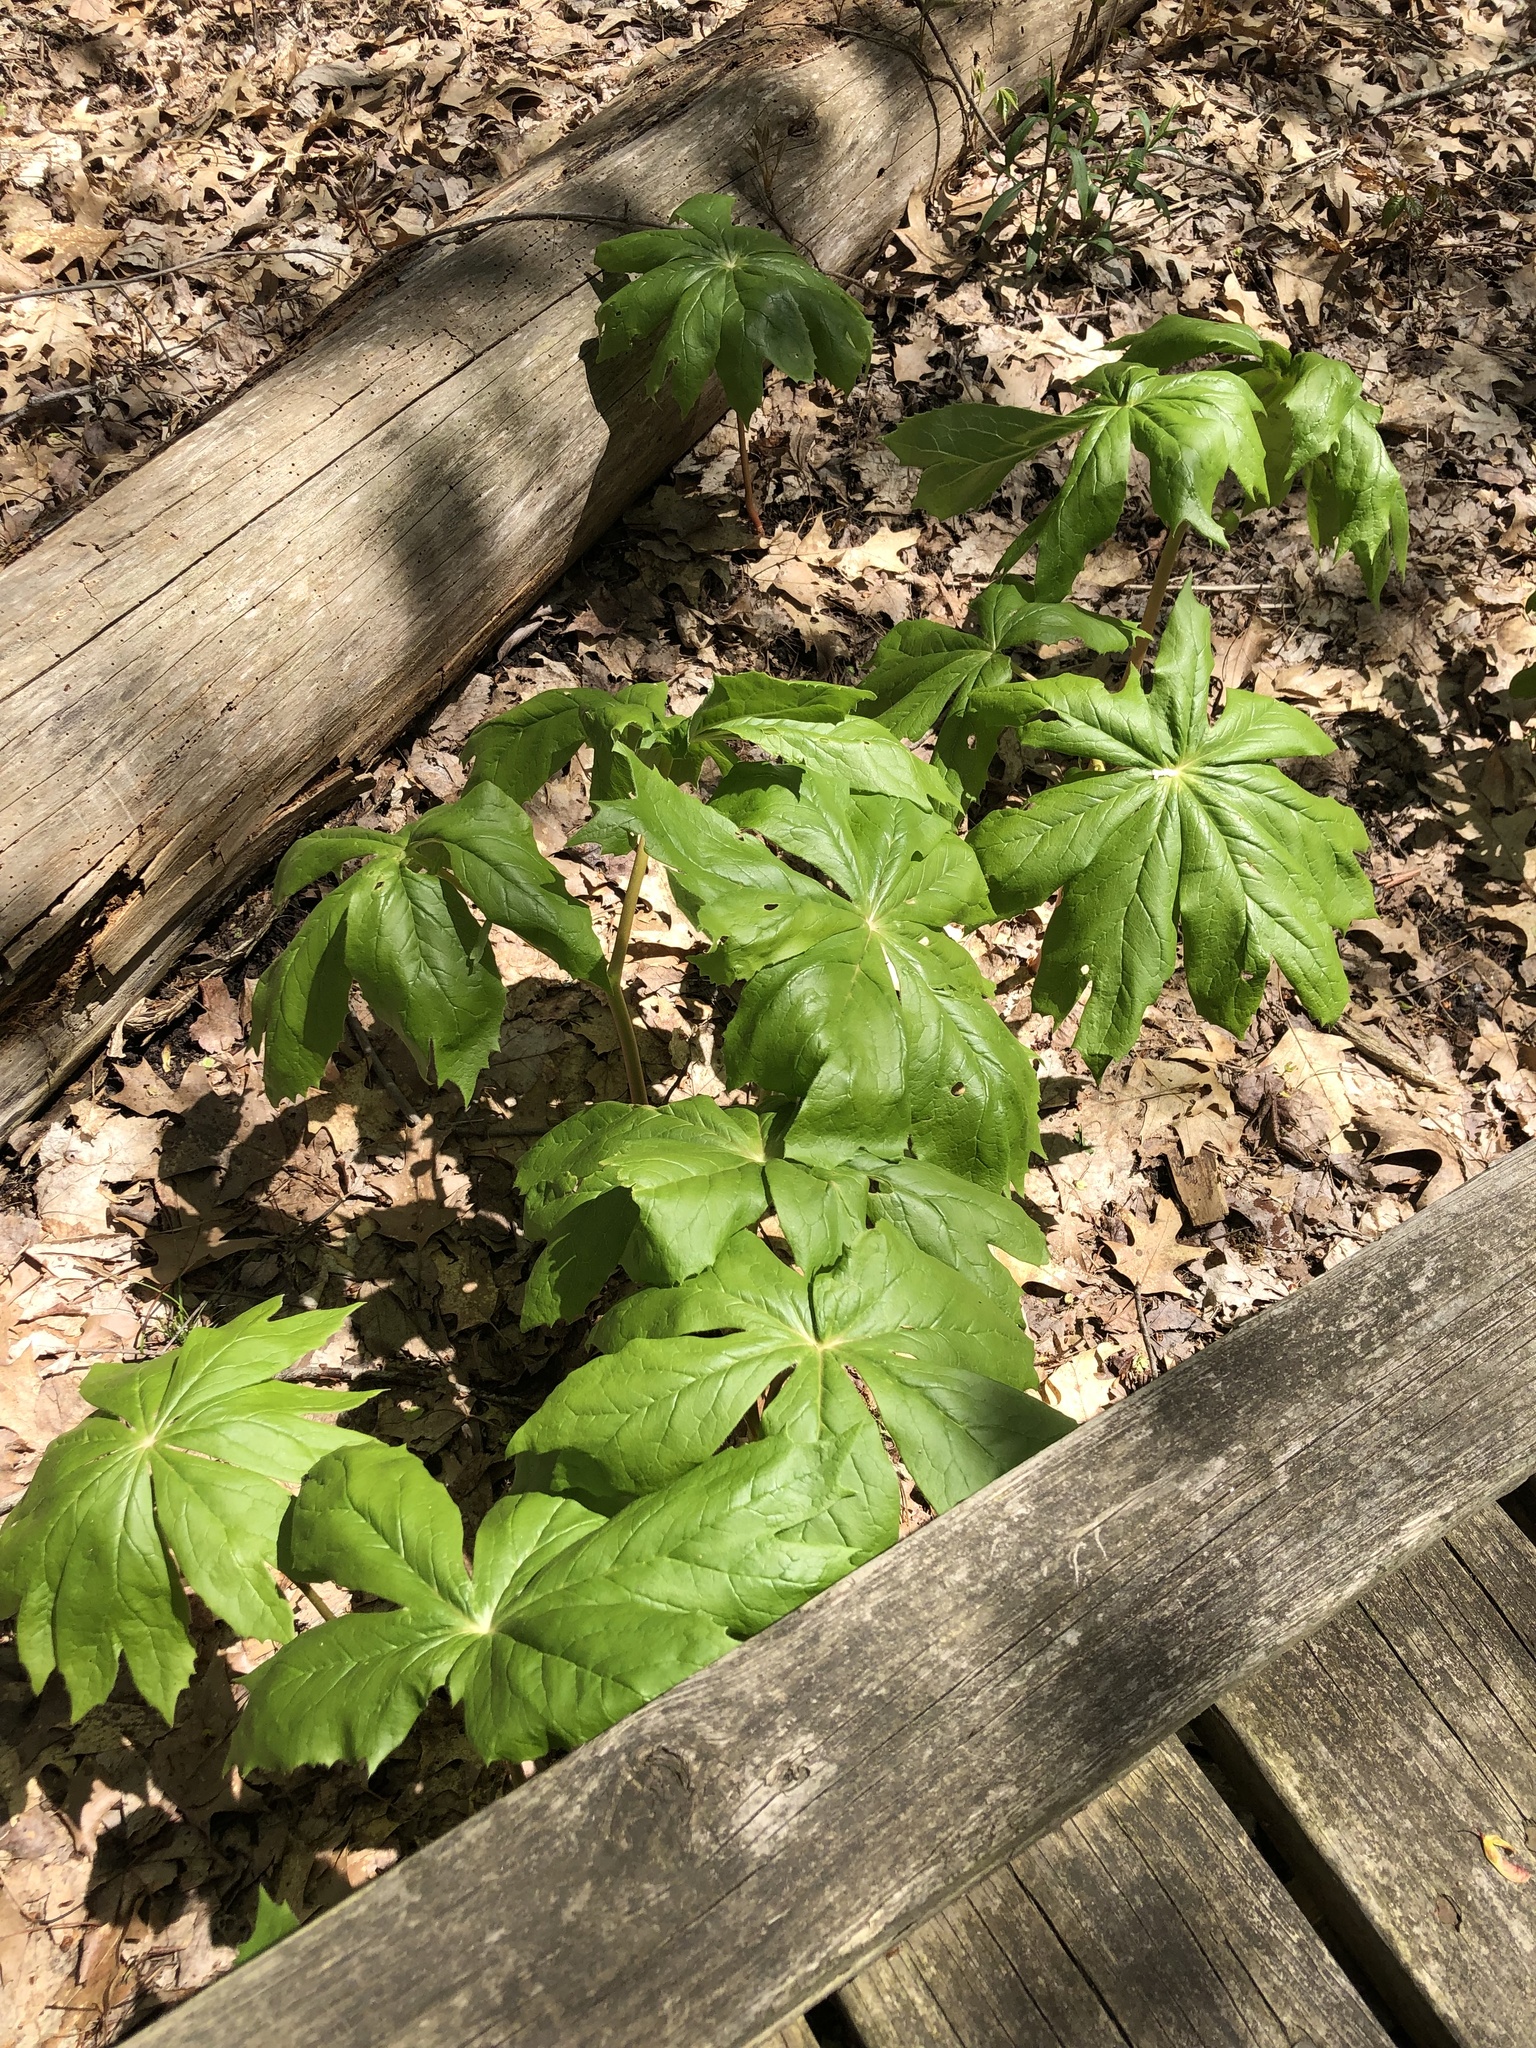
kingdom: Plantae
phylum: Tracheophyta
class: Magnoliopsida
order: Ranunculales
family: Berberidaceae
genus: Podophyllum
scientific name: Podophyllum peltatum
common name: Wild mandrake
